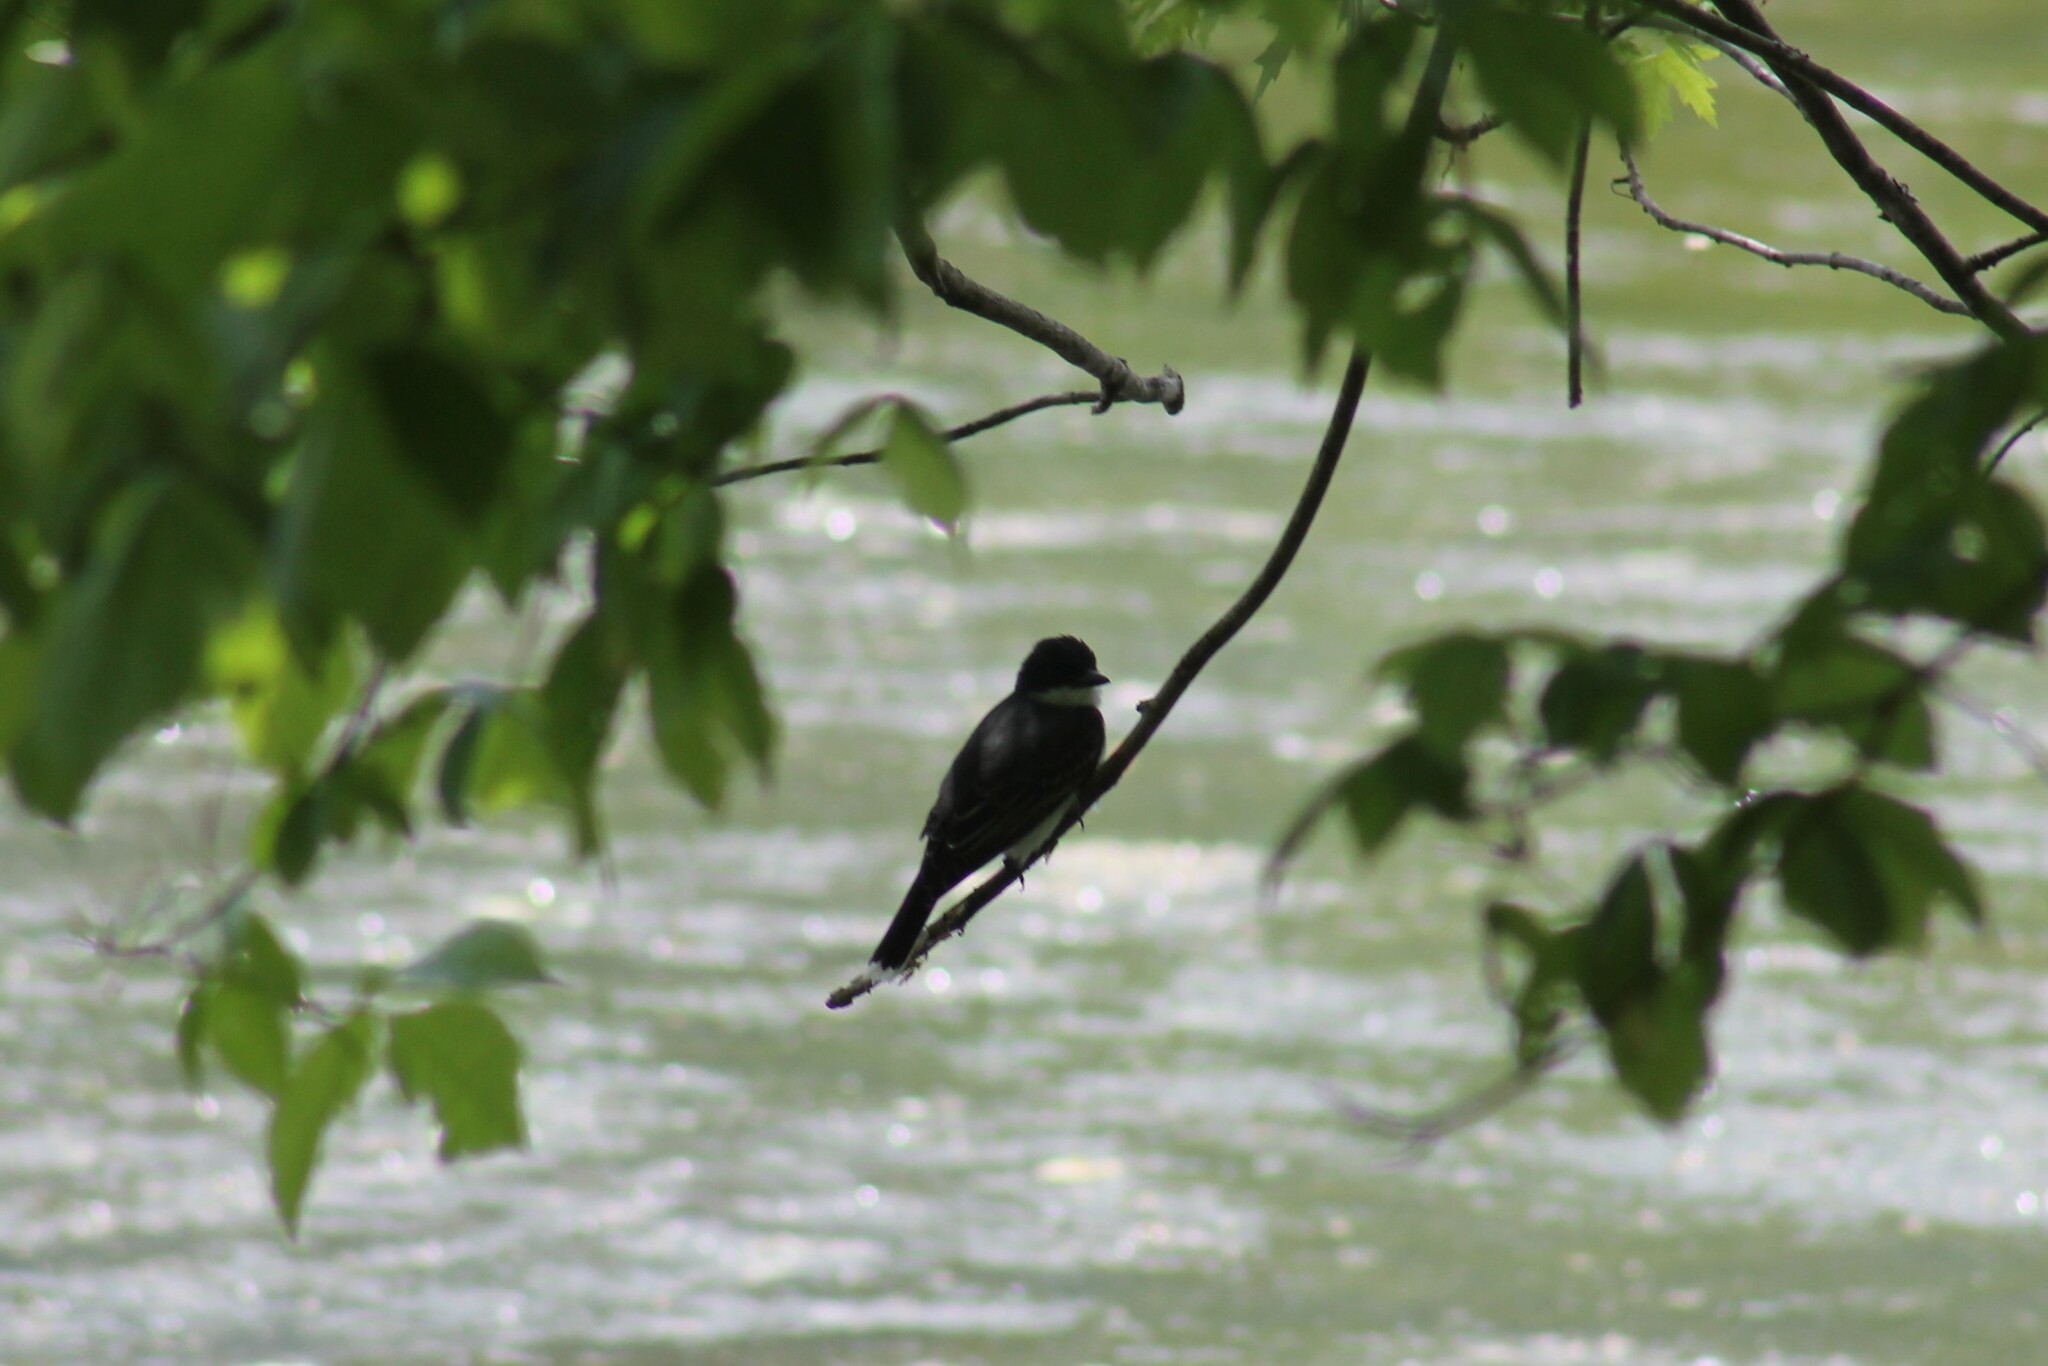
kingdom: Animalia
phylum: Chordata
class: Aves
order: Passeriformes
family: Tyrannidae
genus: Tyrannus
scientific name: Tyrannus tyrannus
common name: Eastern kingbird
